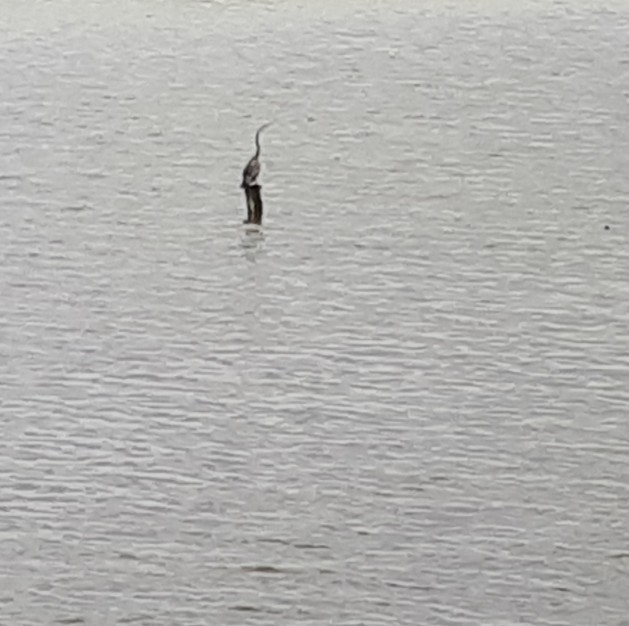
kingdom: Animalia
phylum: Chordata
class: Aves
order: Suliformes
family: Anhingidae
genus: Anhinga
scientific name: Anhinga novaehollandiae
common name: Australasian darter
